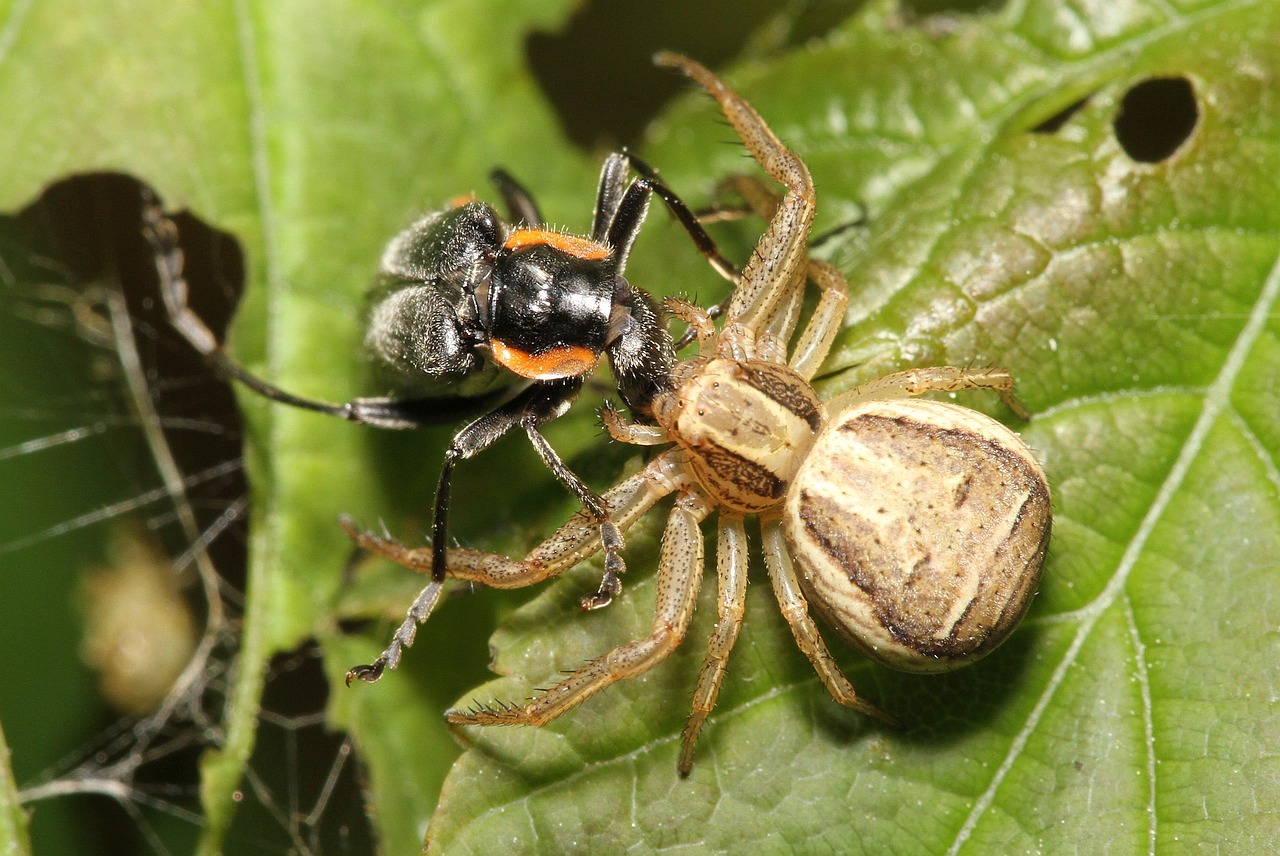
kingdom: Animalia
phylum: Arthropoda
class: Arachnida
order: Araneae
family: Thomisidae
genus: Xysticus
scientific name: Xysticus ulmi
